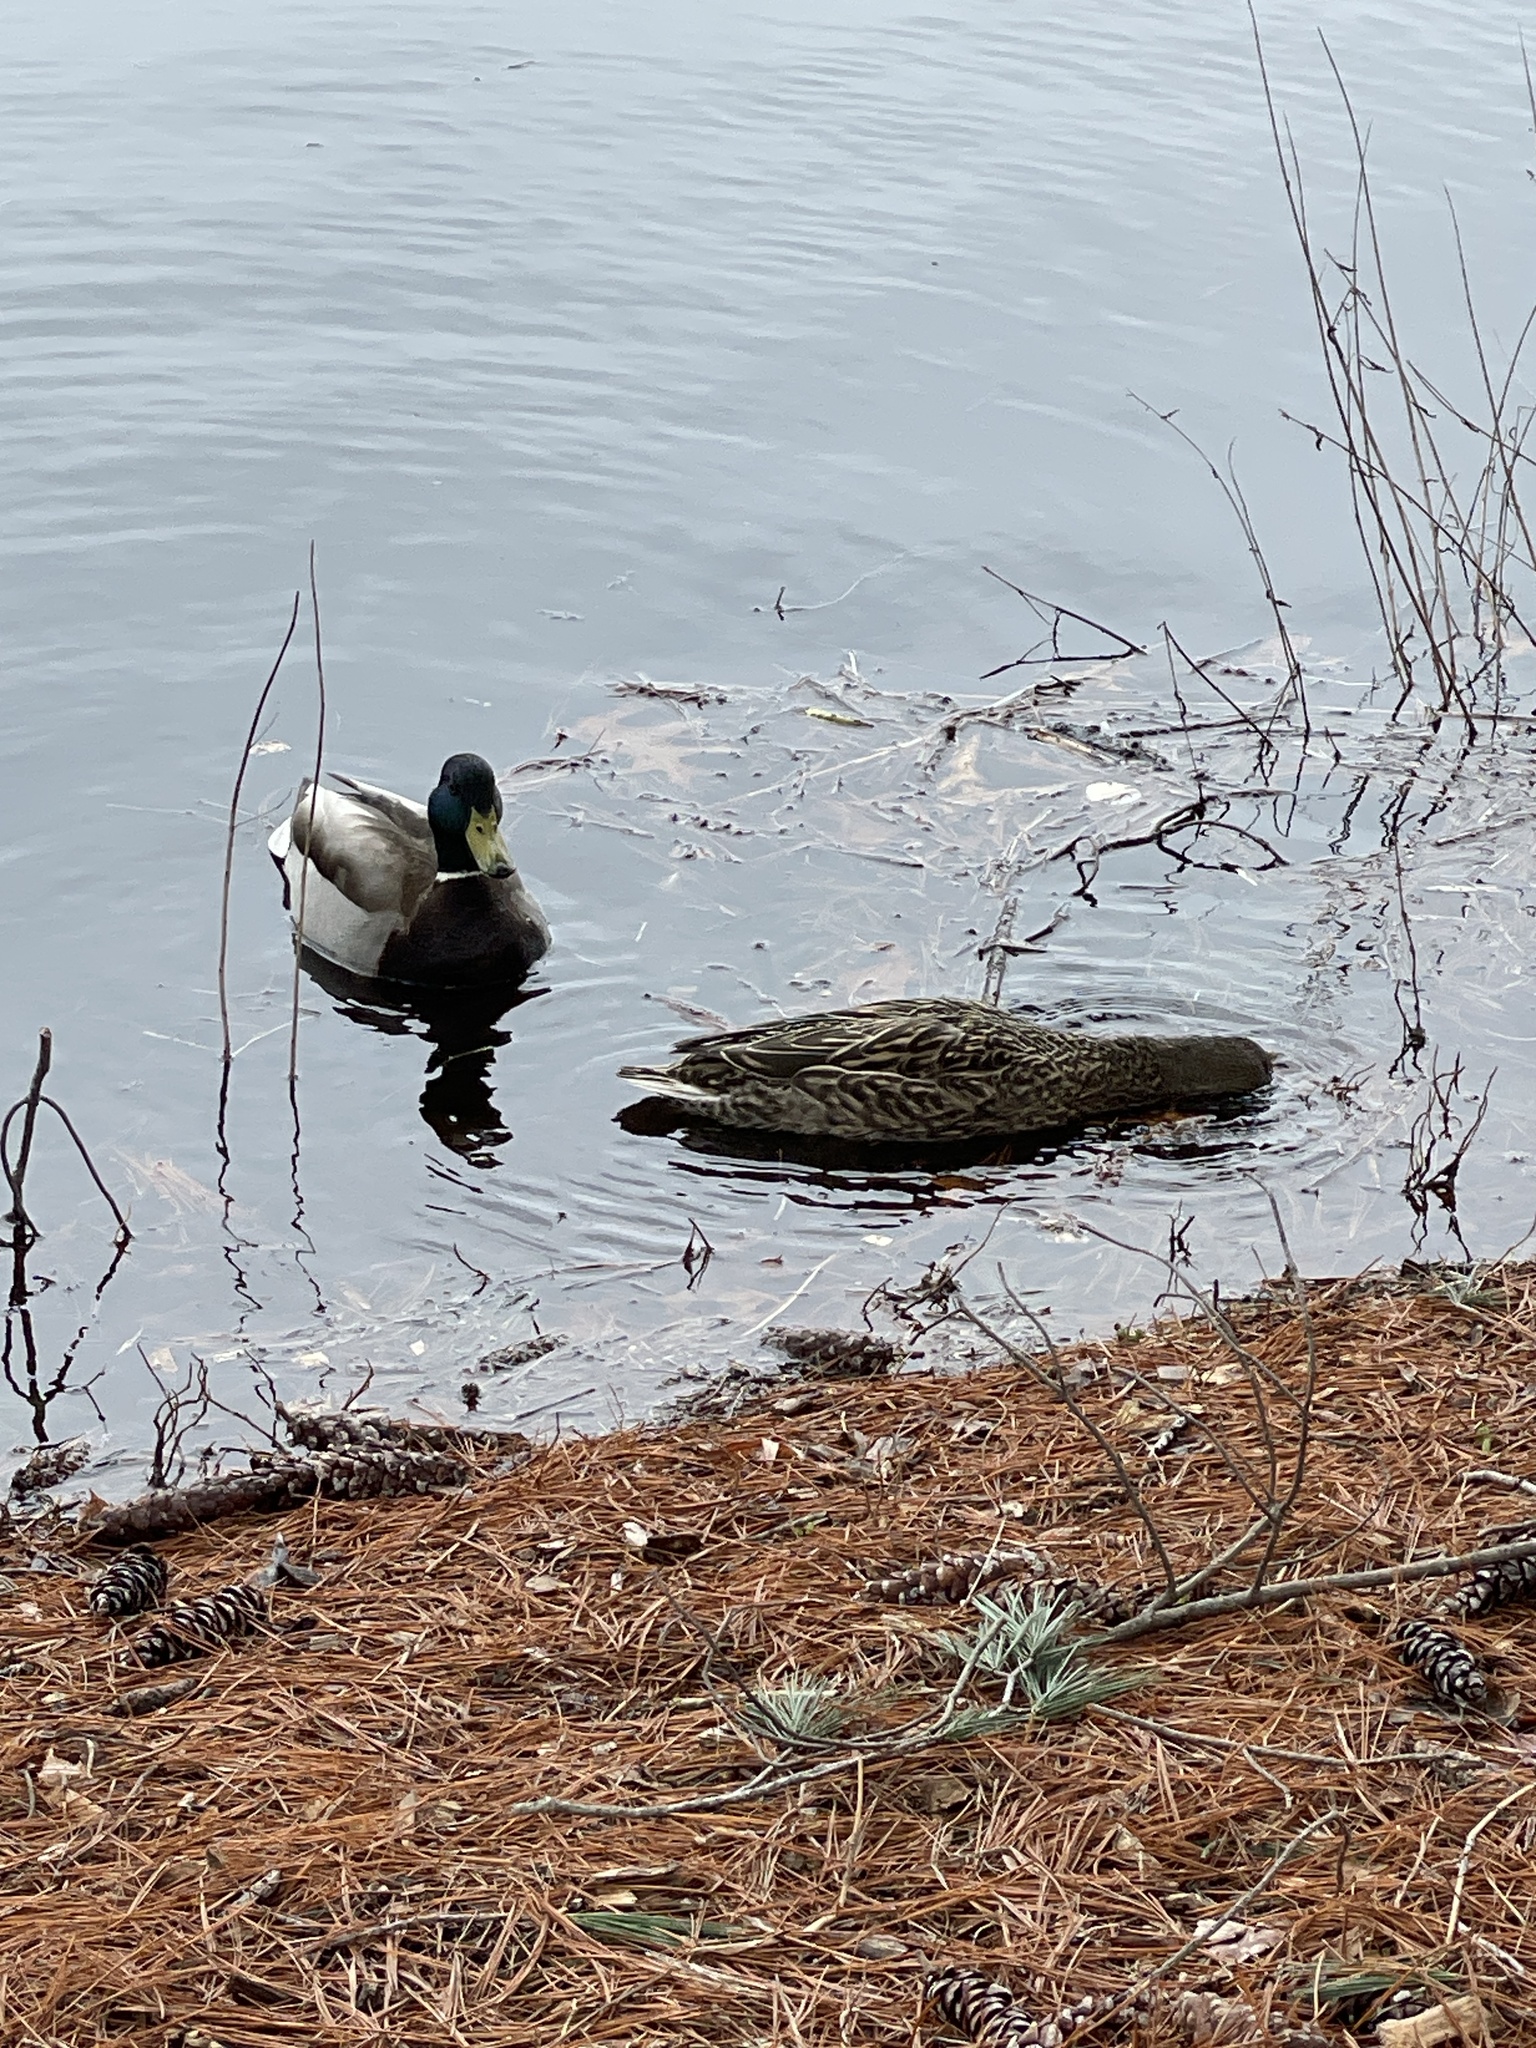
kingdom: Animalia
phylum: Chordata
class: Aves
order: Anseriformes
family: Anatidae
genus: Anas
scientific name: Anas platyrhynchos
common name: Mallard
